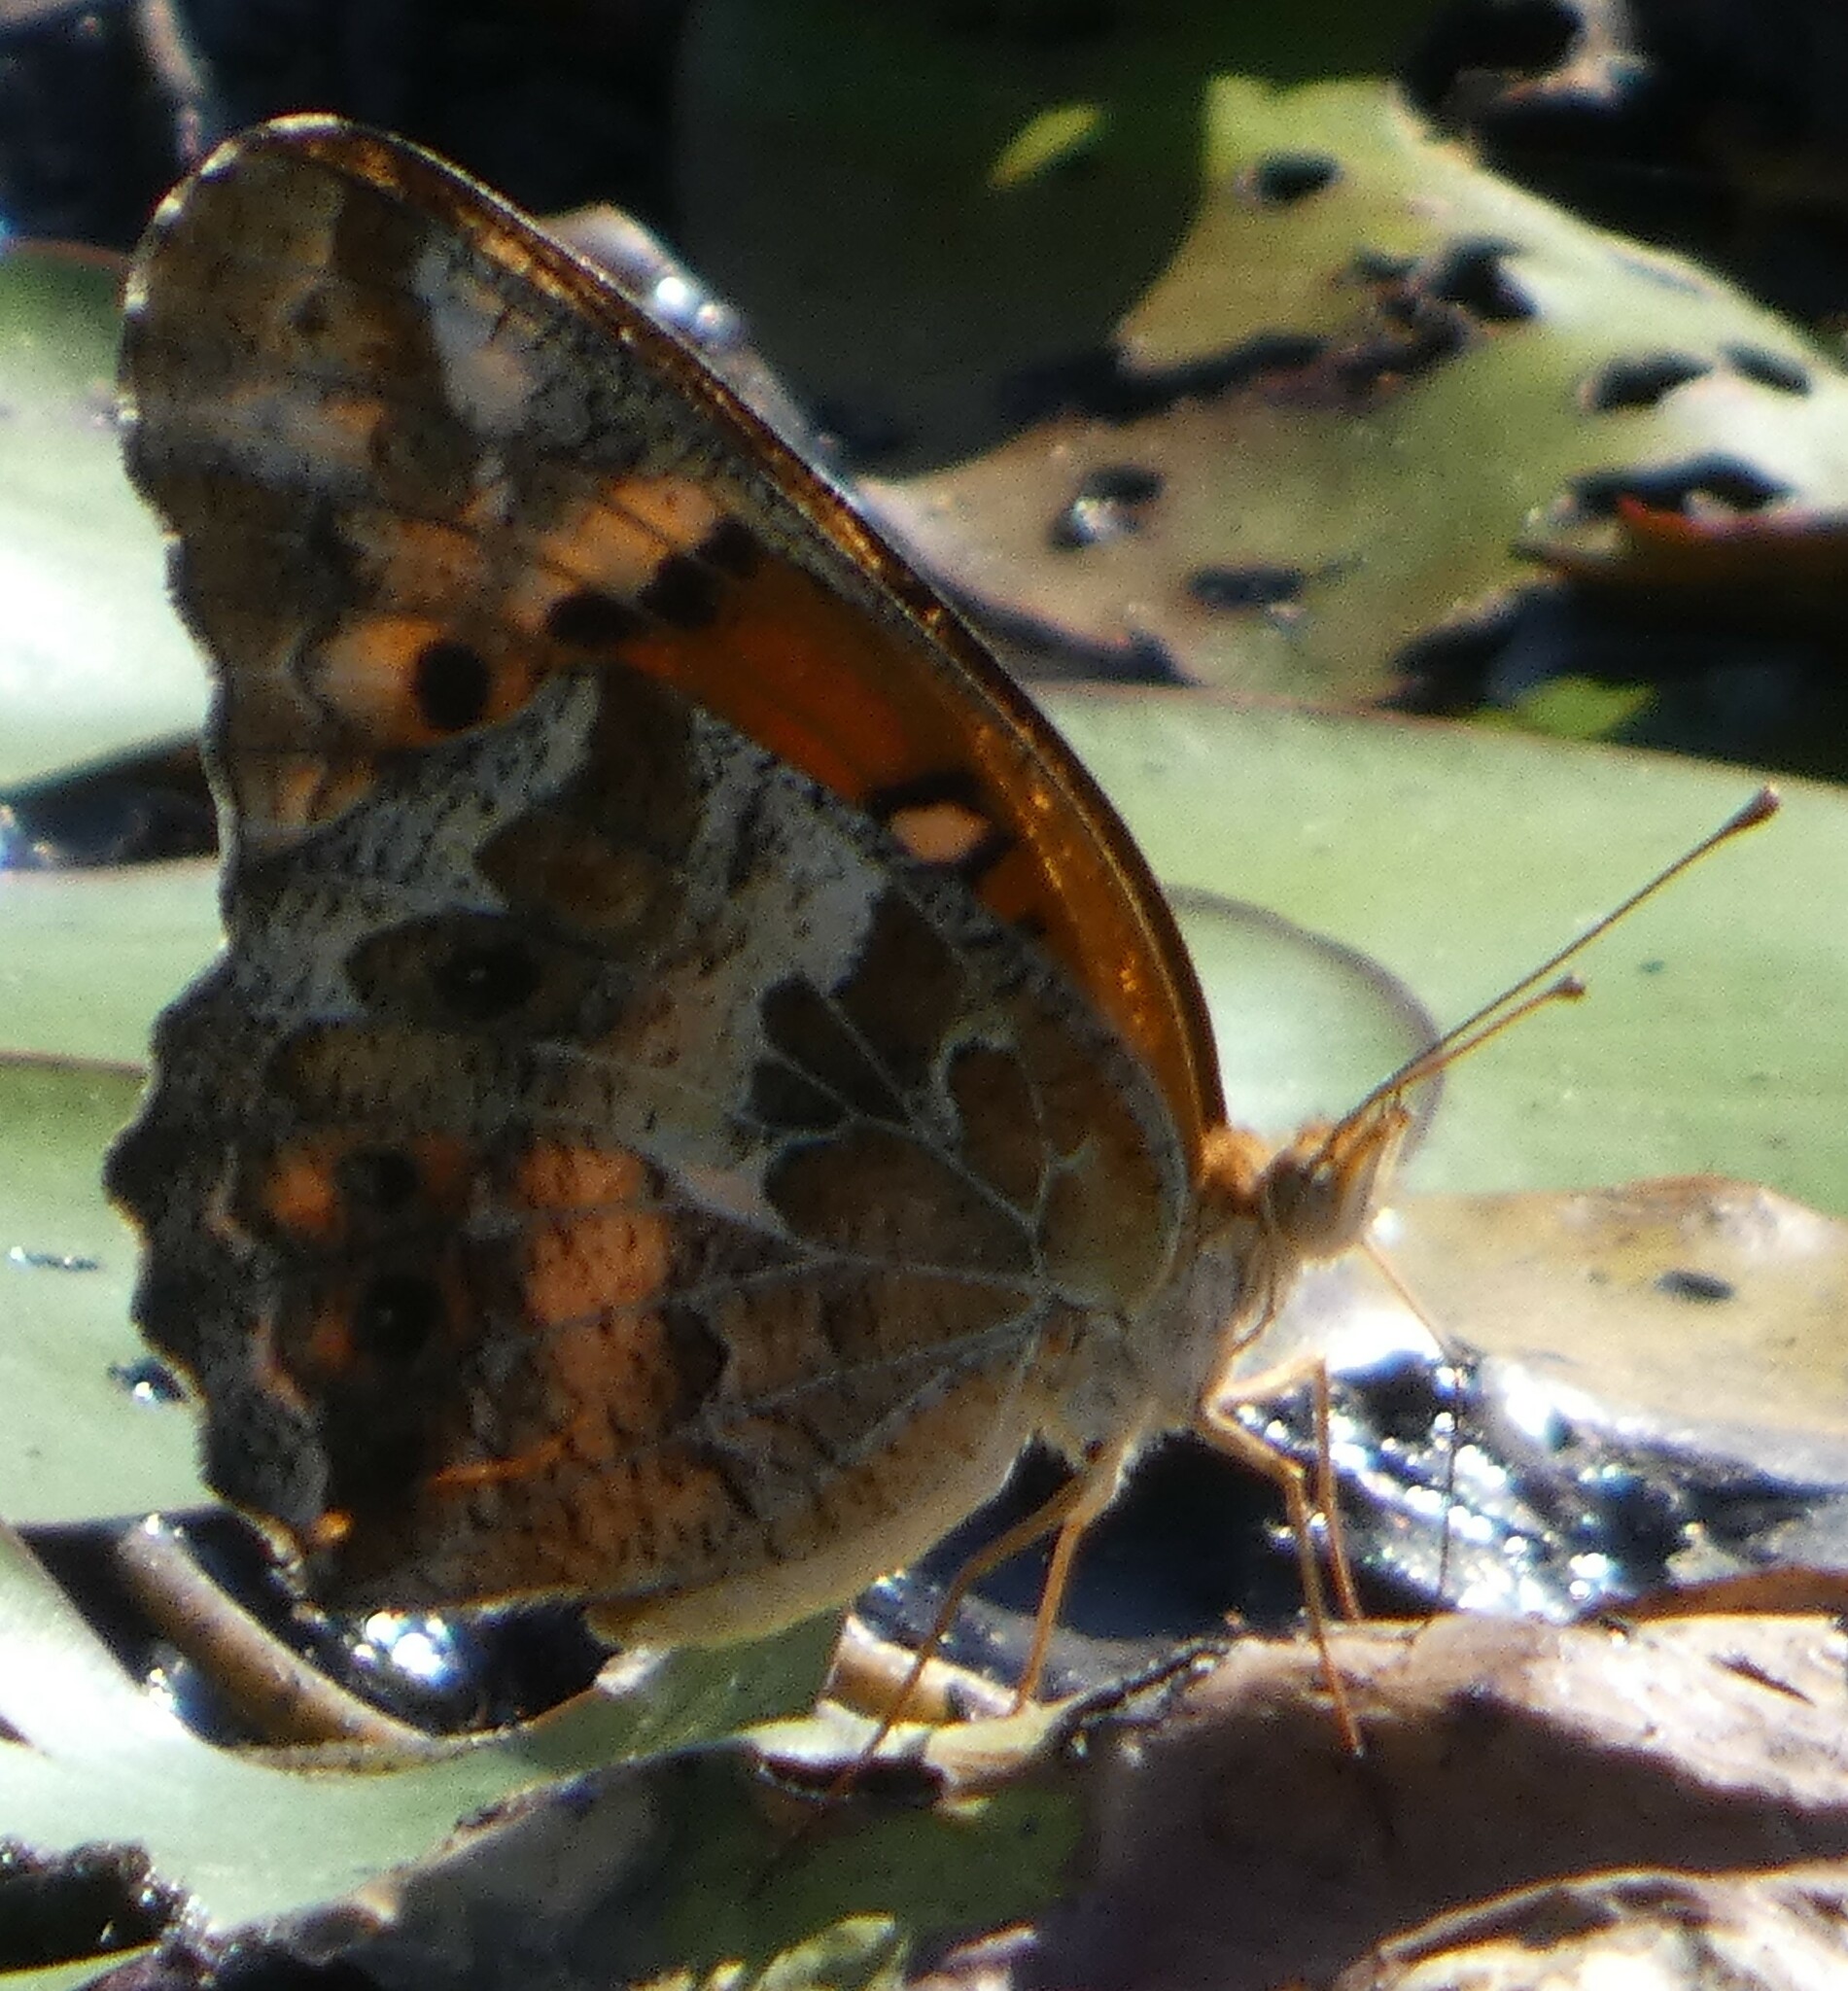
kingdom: Animalia
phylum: Arthropoda
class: Insecta
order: Lepidoptera
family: Nymphalidae
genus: Euptoieta
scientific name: Euptoieta claudia
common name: Variegated fritillary
